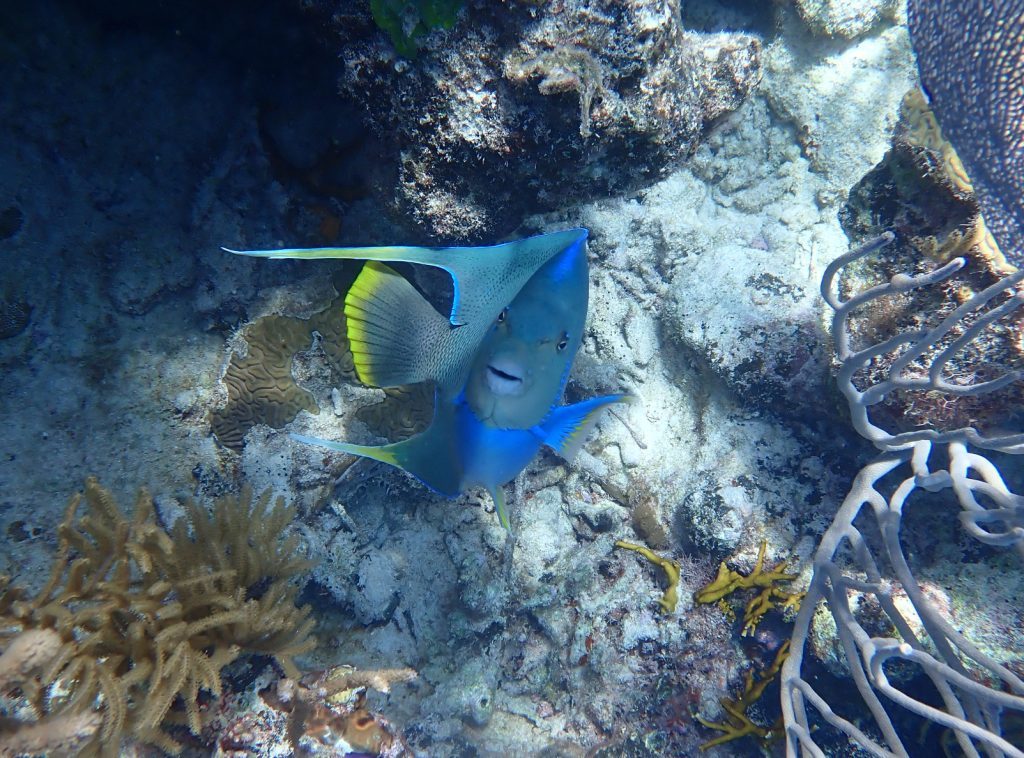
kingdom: Animalia
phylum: Chordata
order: Perciformes
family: Pomacanthidae
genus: Holacanthus
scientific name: Holacanthus bermudensis
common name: Blue angelfish
